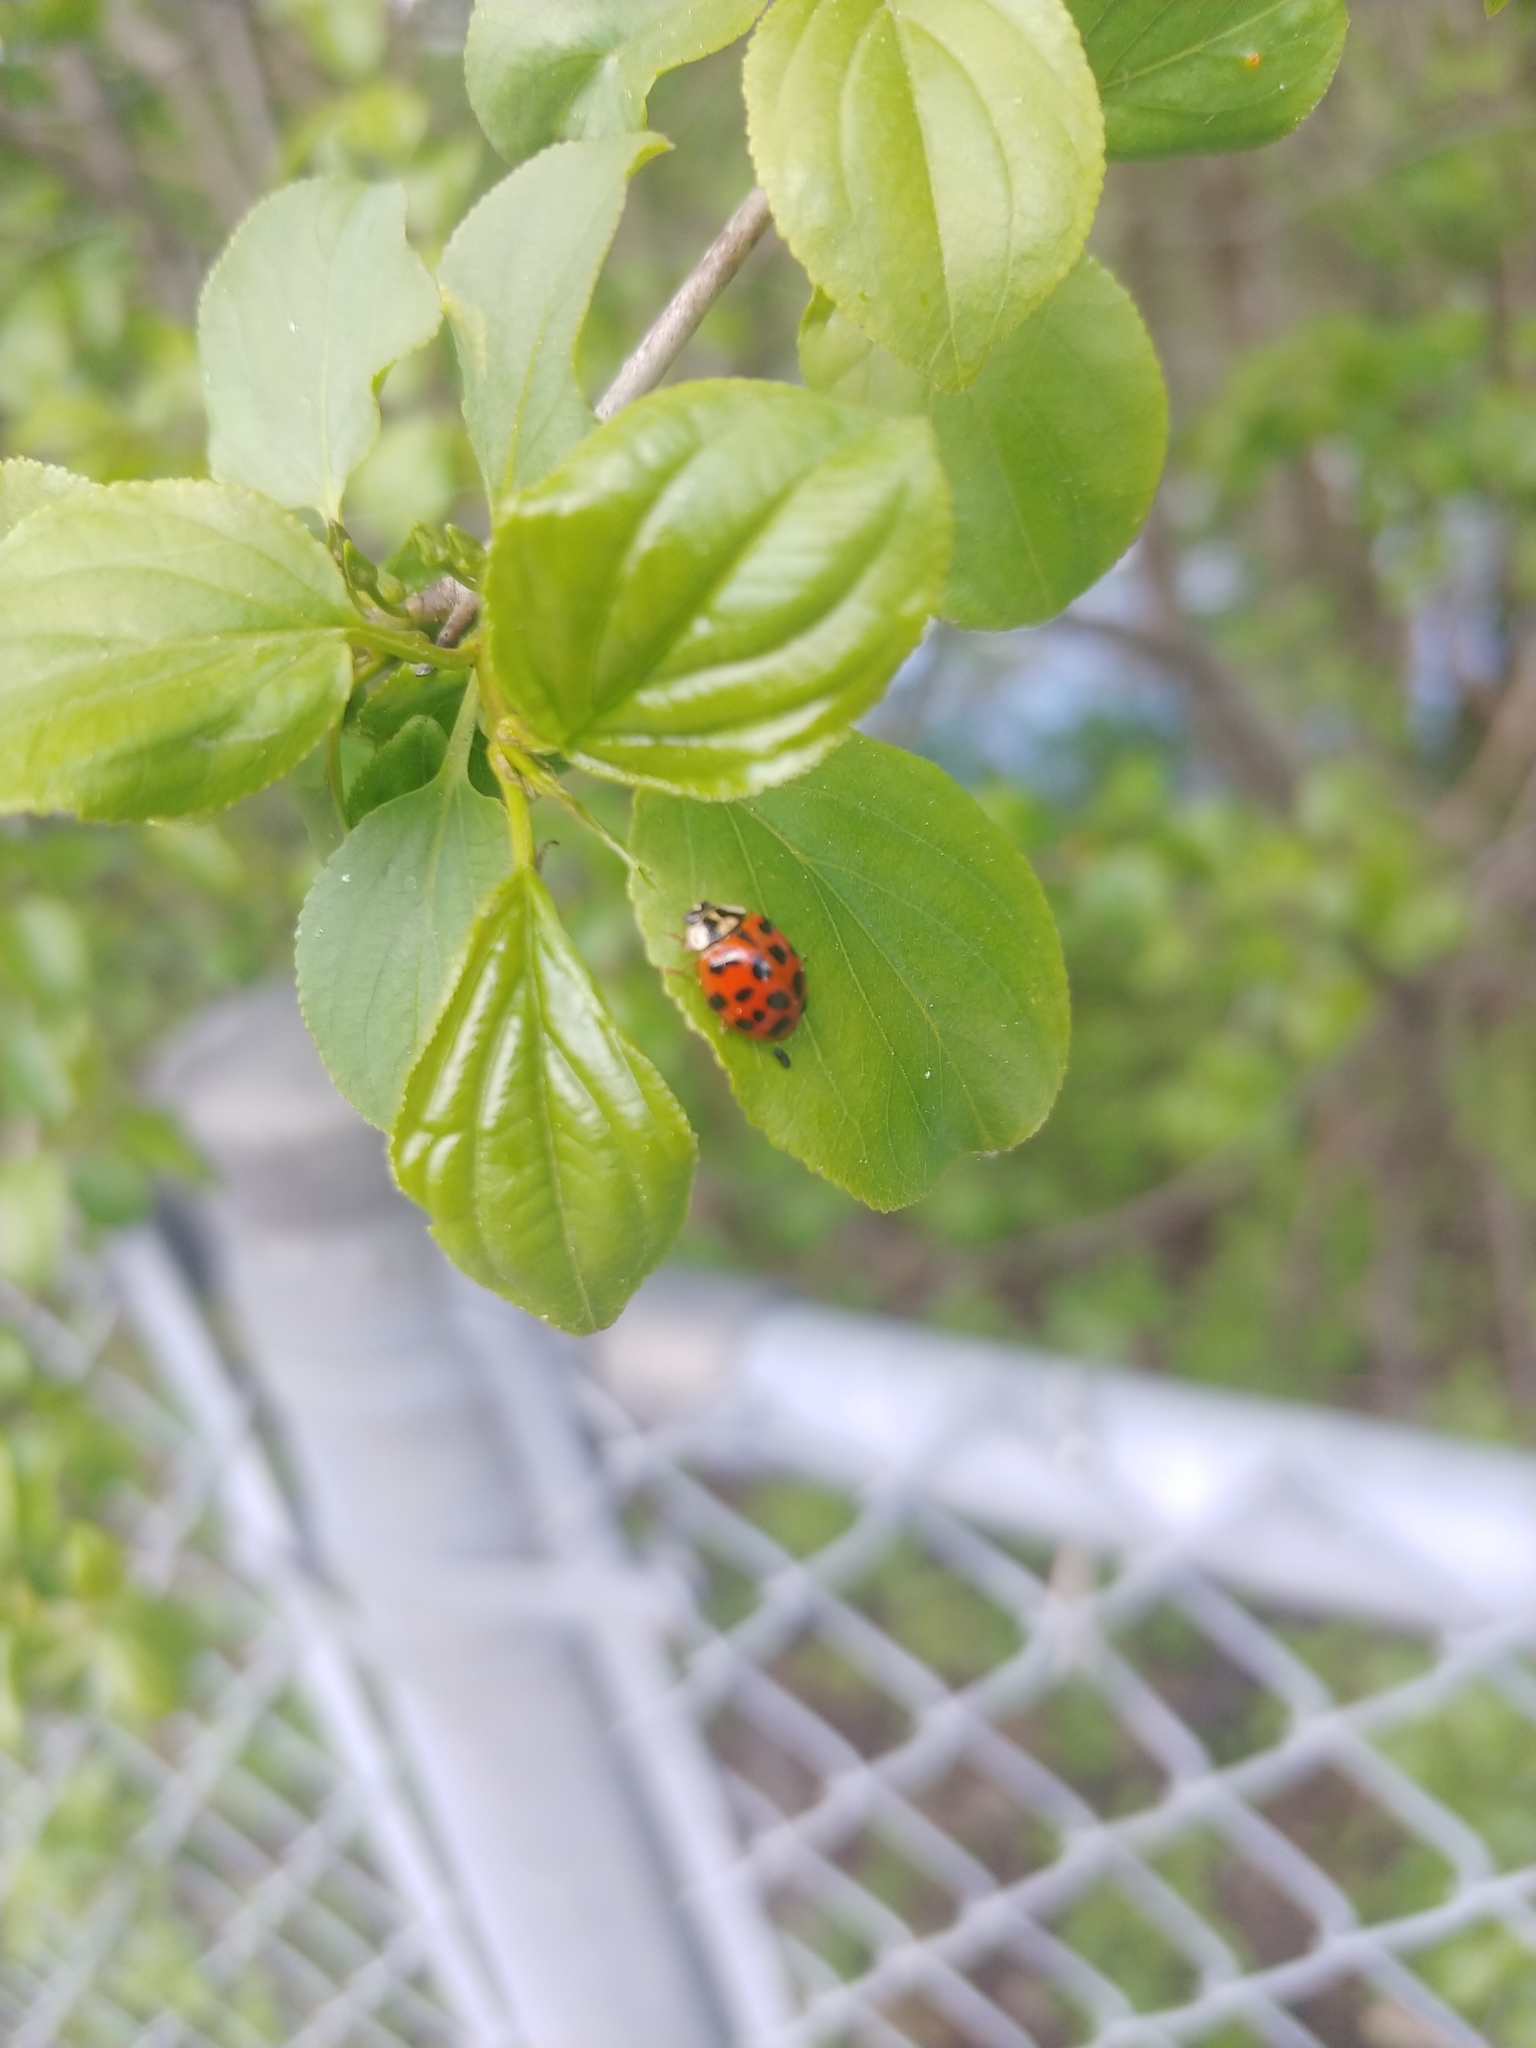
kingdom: Animalia
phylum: Arthropoda
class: Insecta
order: Coleoptera
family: Coccinellidae
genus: Harmonia
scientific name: Harmonia axyridis
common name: Harlequin ladybird
